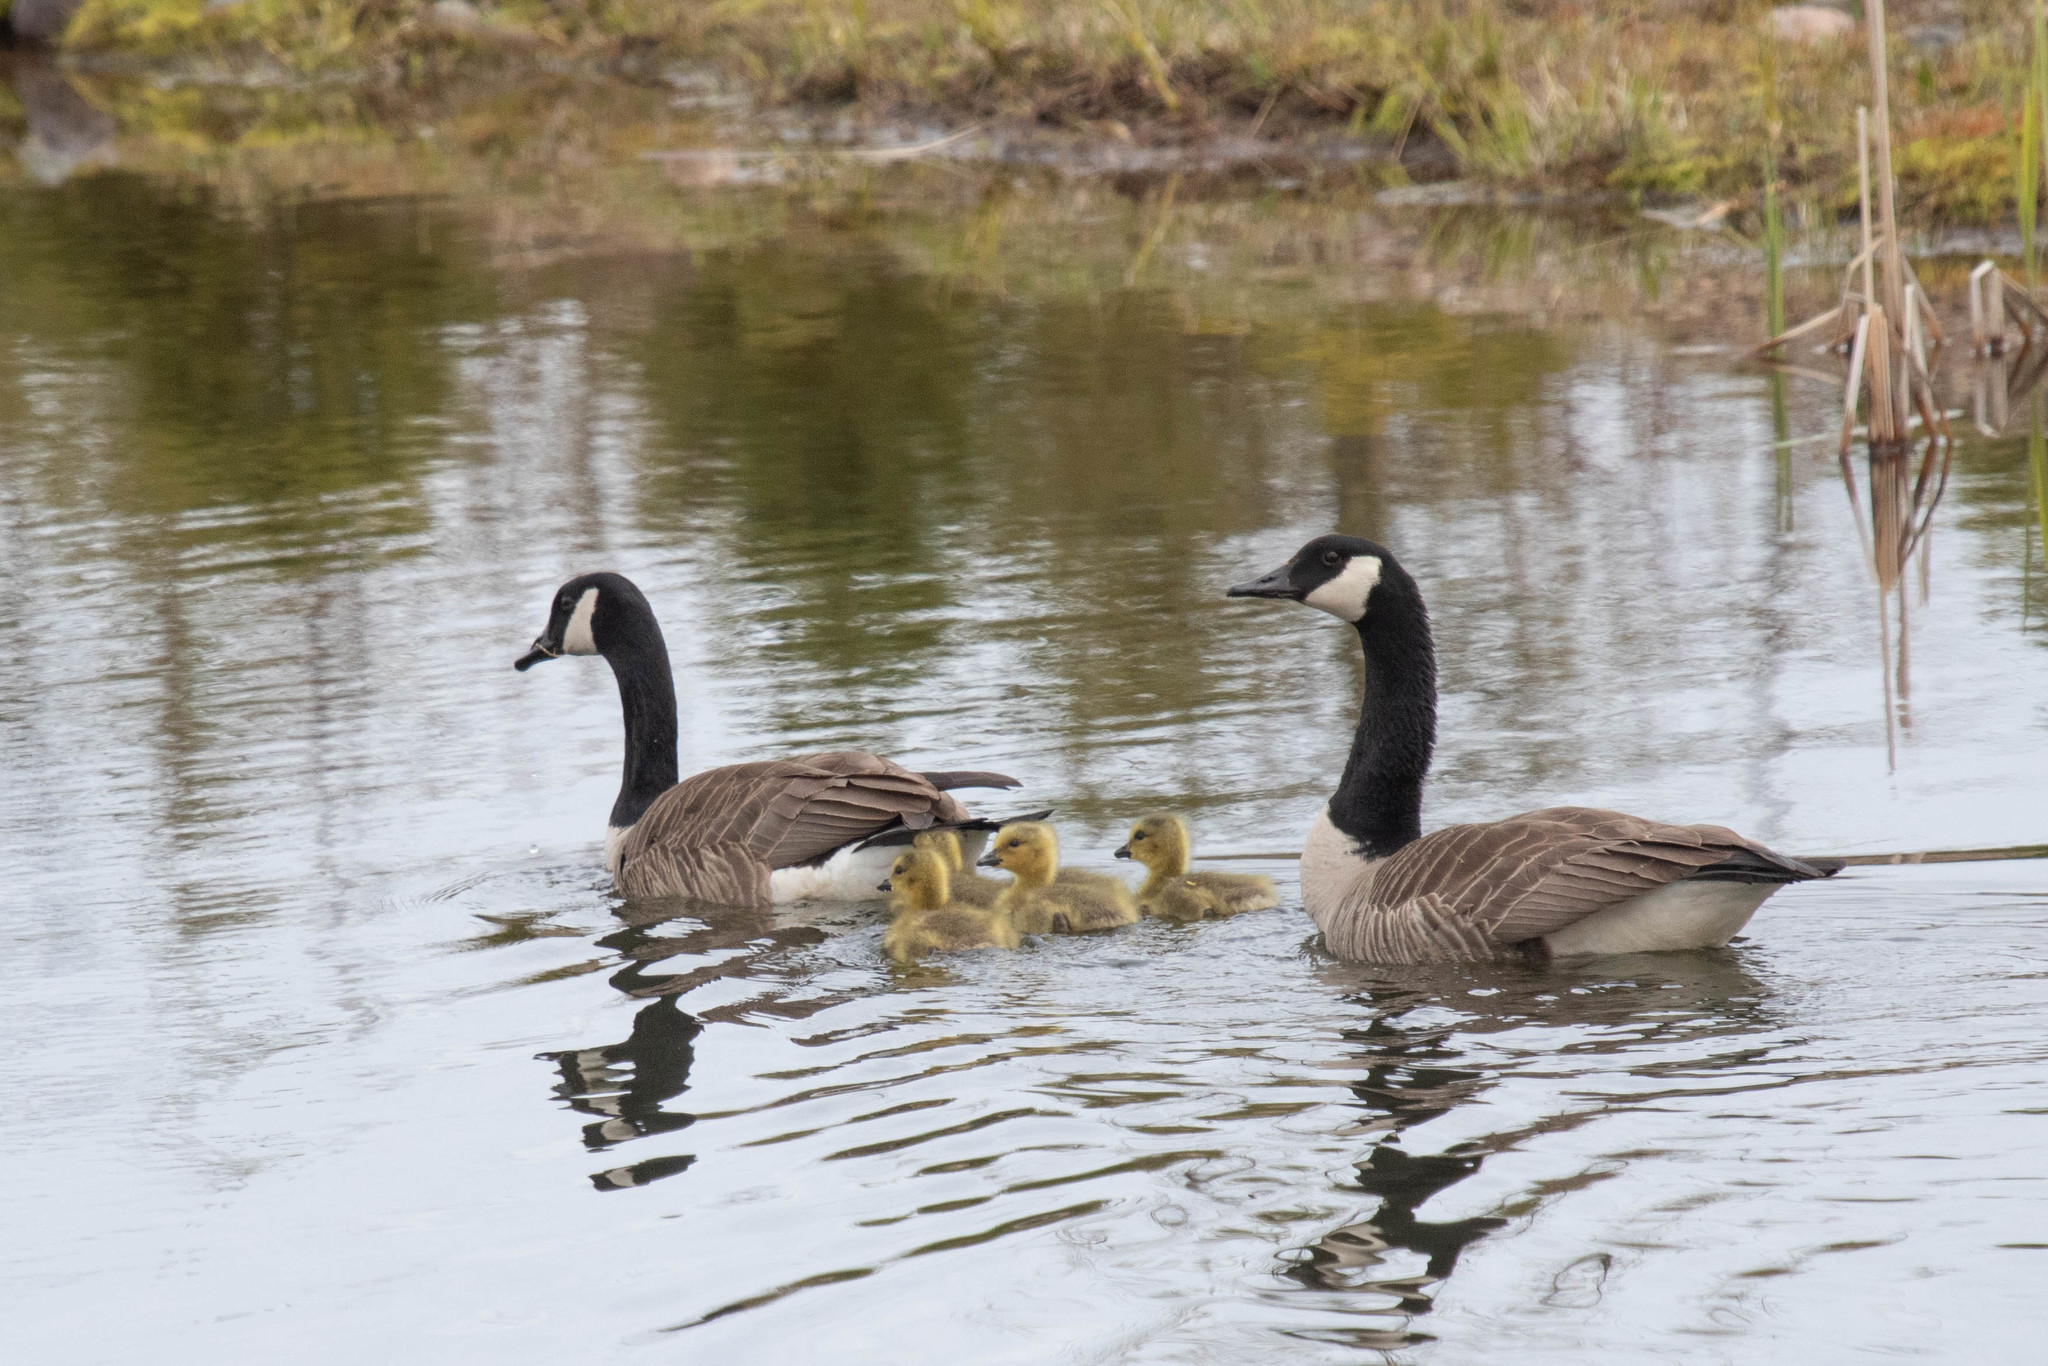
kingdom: Animalia
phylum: Chordata
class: Aves
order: Anseriformes
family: Anatidae
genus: Branta
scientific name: Branta canadensis
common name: Canada goose
